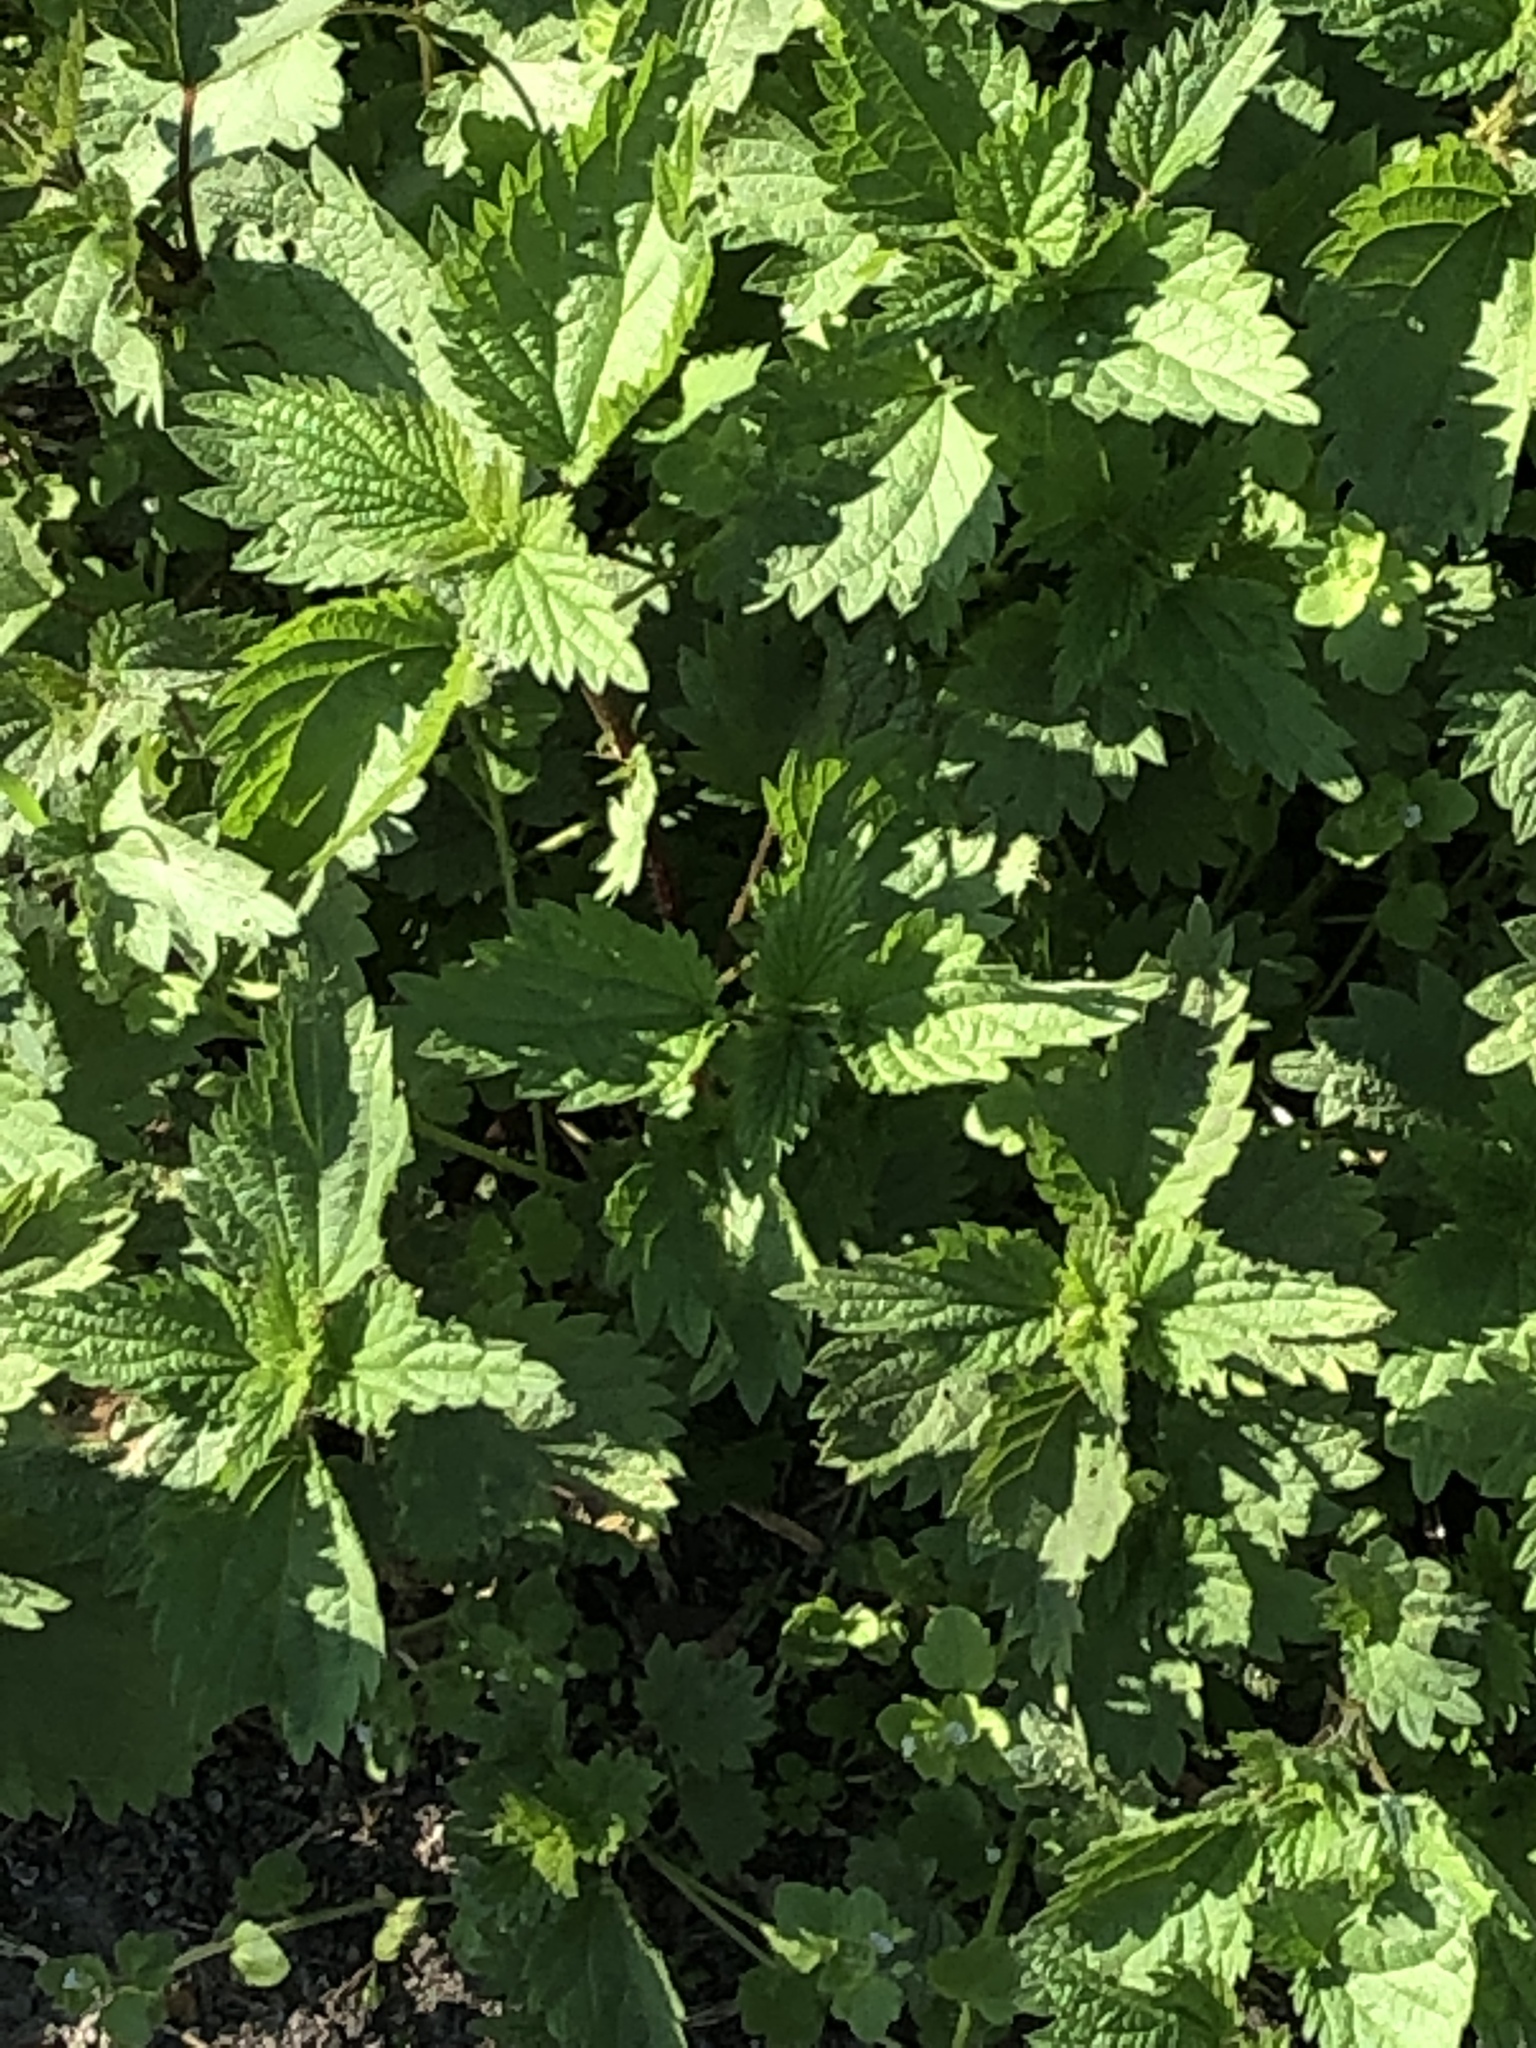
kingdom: Plantae
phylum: Tracheophyta
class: Magnoliopsida
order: Rosales
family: Urticaceae
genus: Urtica
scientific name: Urtica urens
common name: Dwarf nettle
